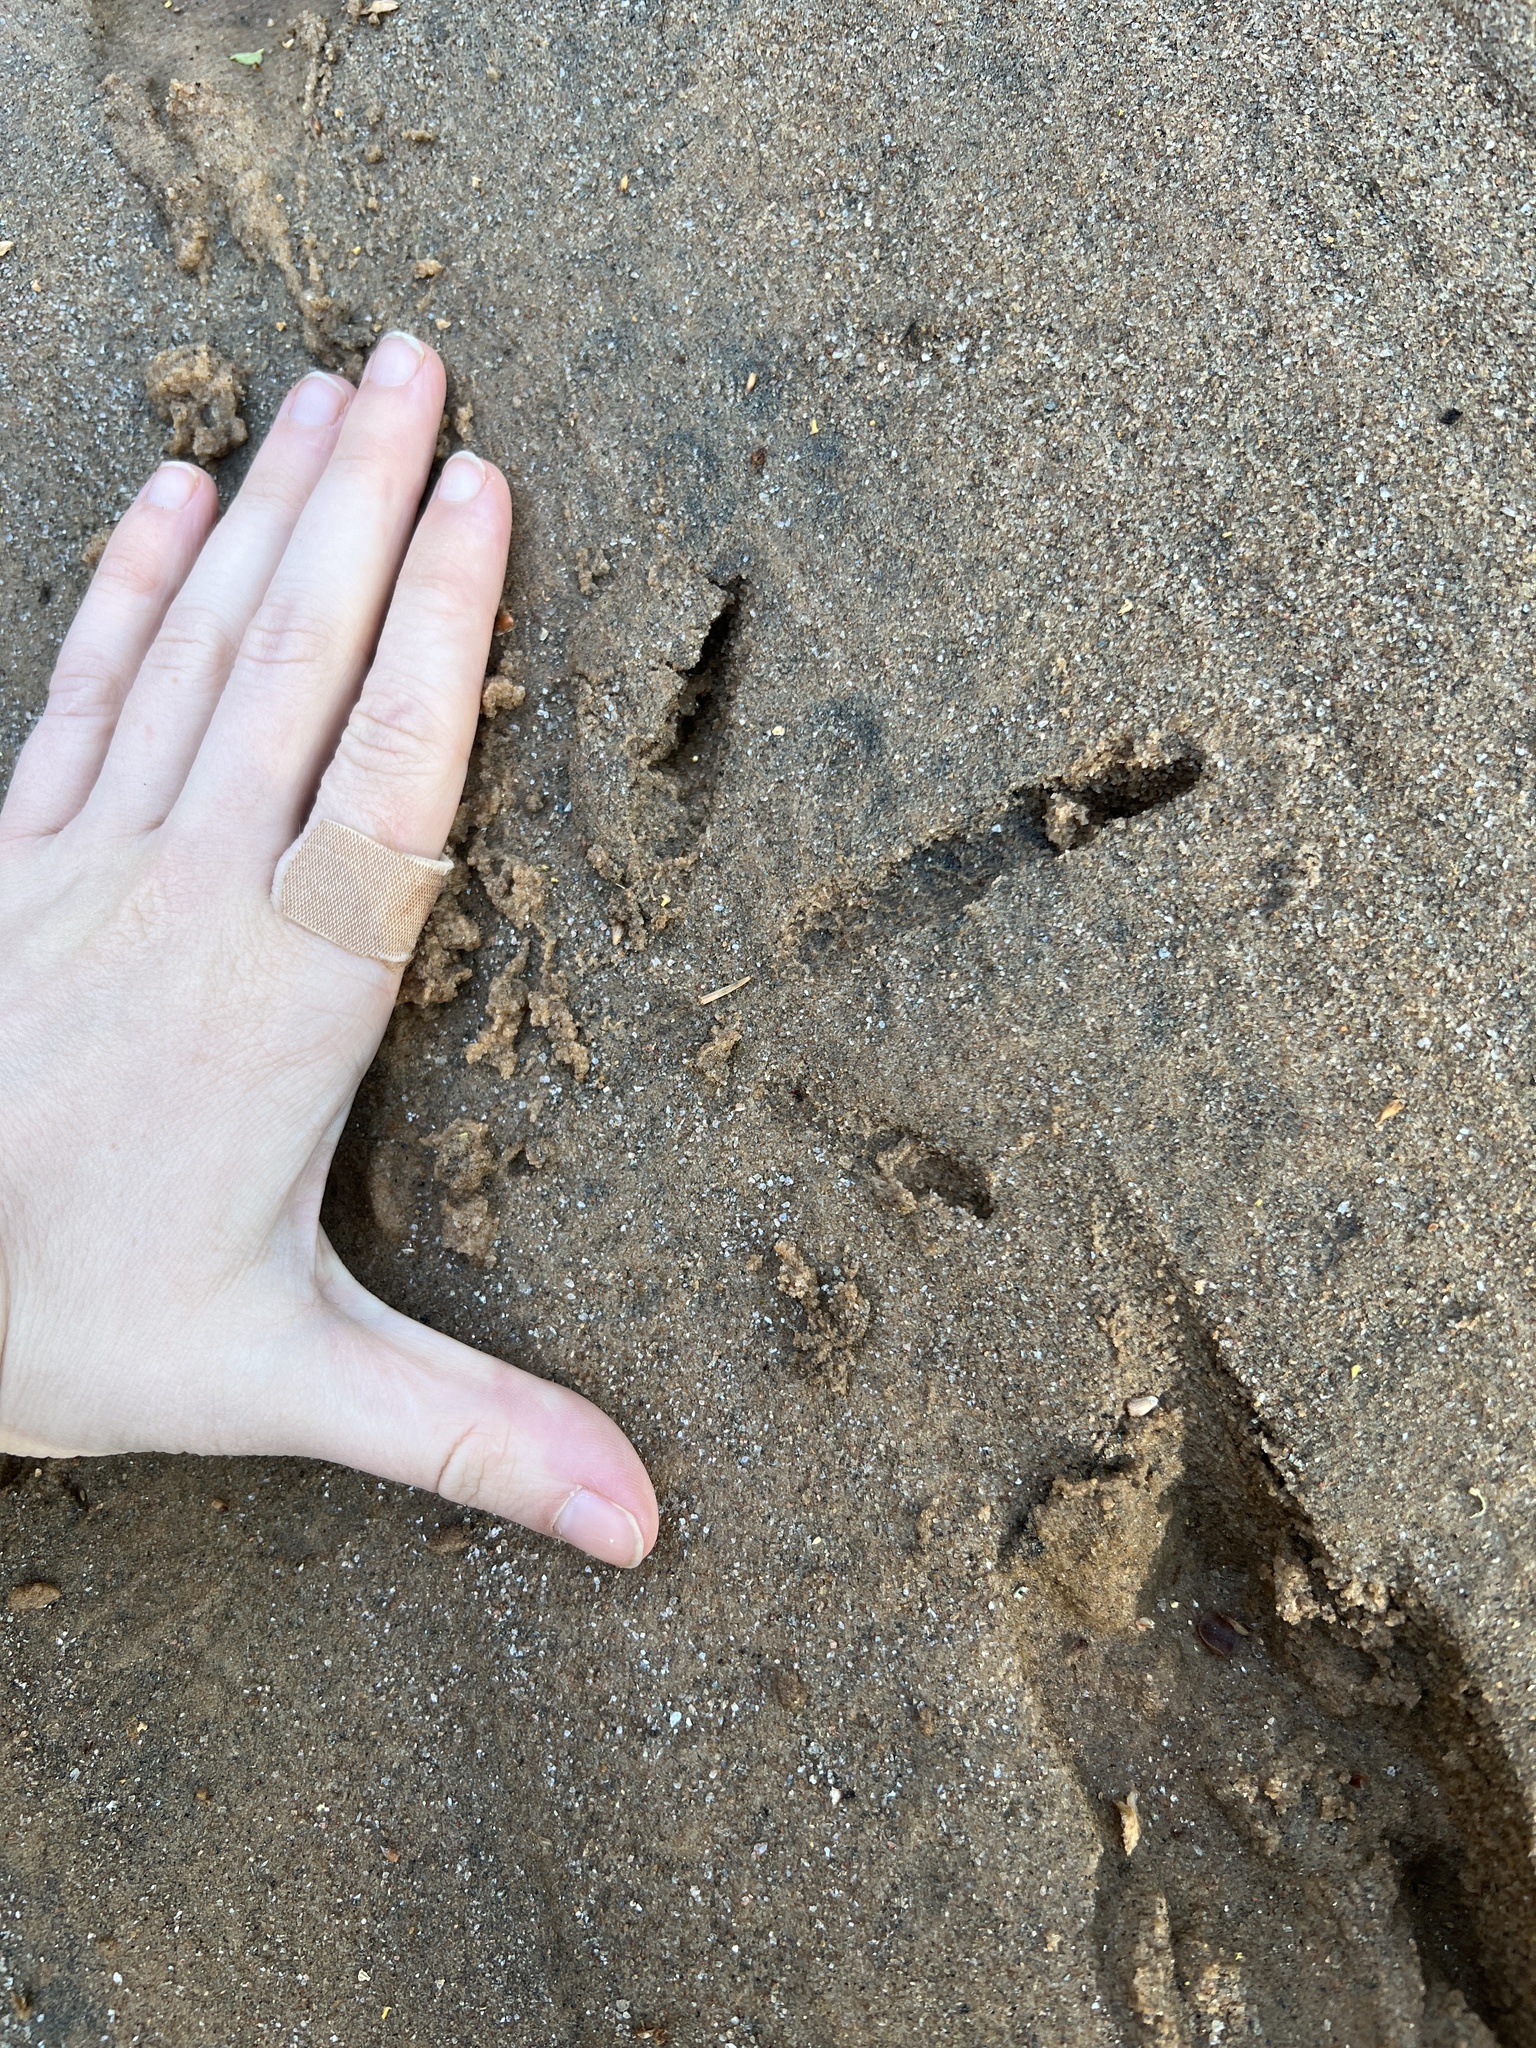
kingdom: Animalia
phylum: Chordata
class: Aves
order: Galliformes
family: Phasianidae
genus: Meleagris
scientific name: Meleagris gallopavo
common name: Wild turkey
